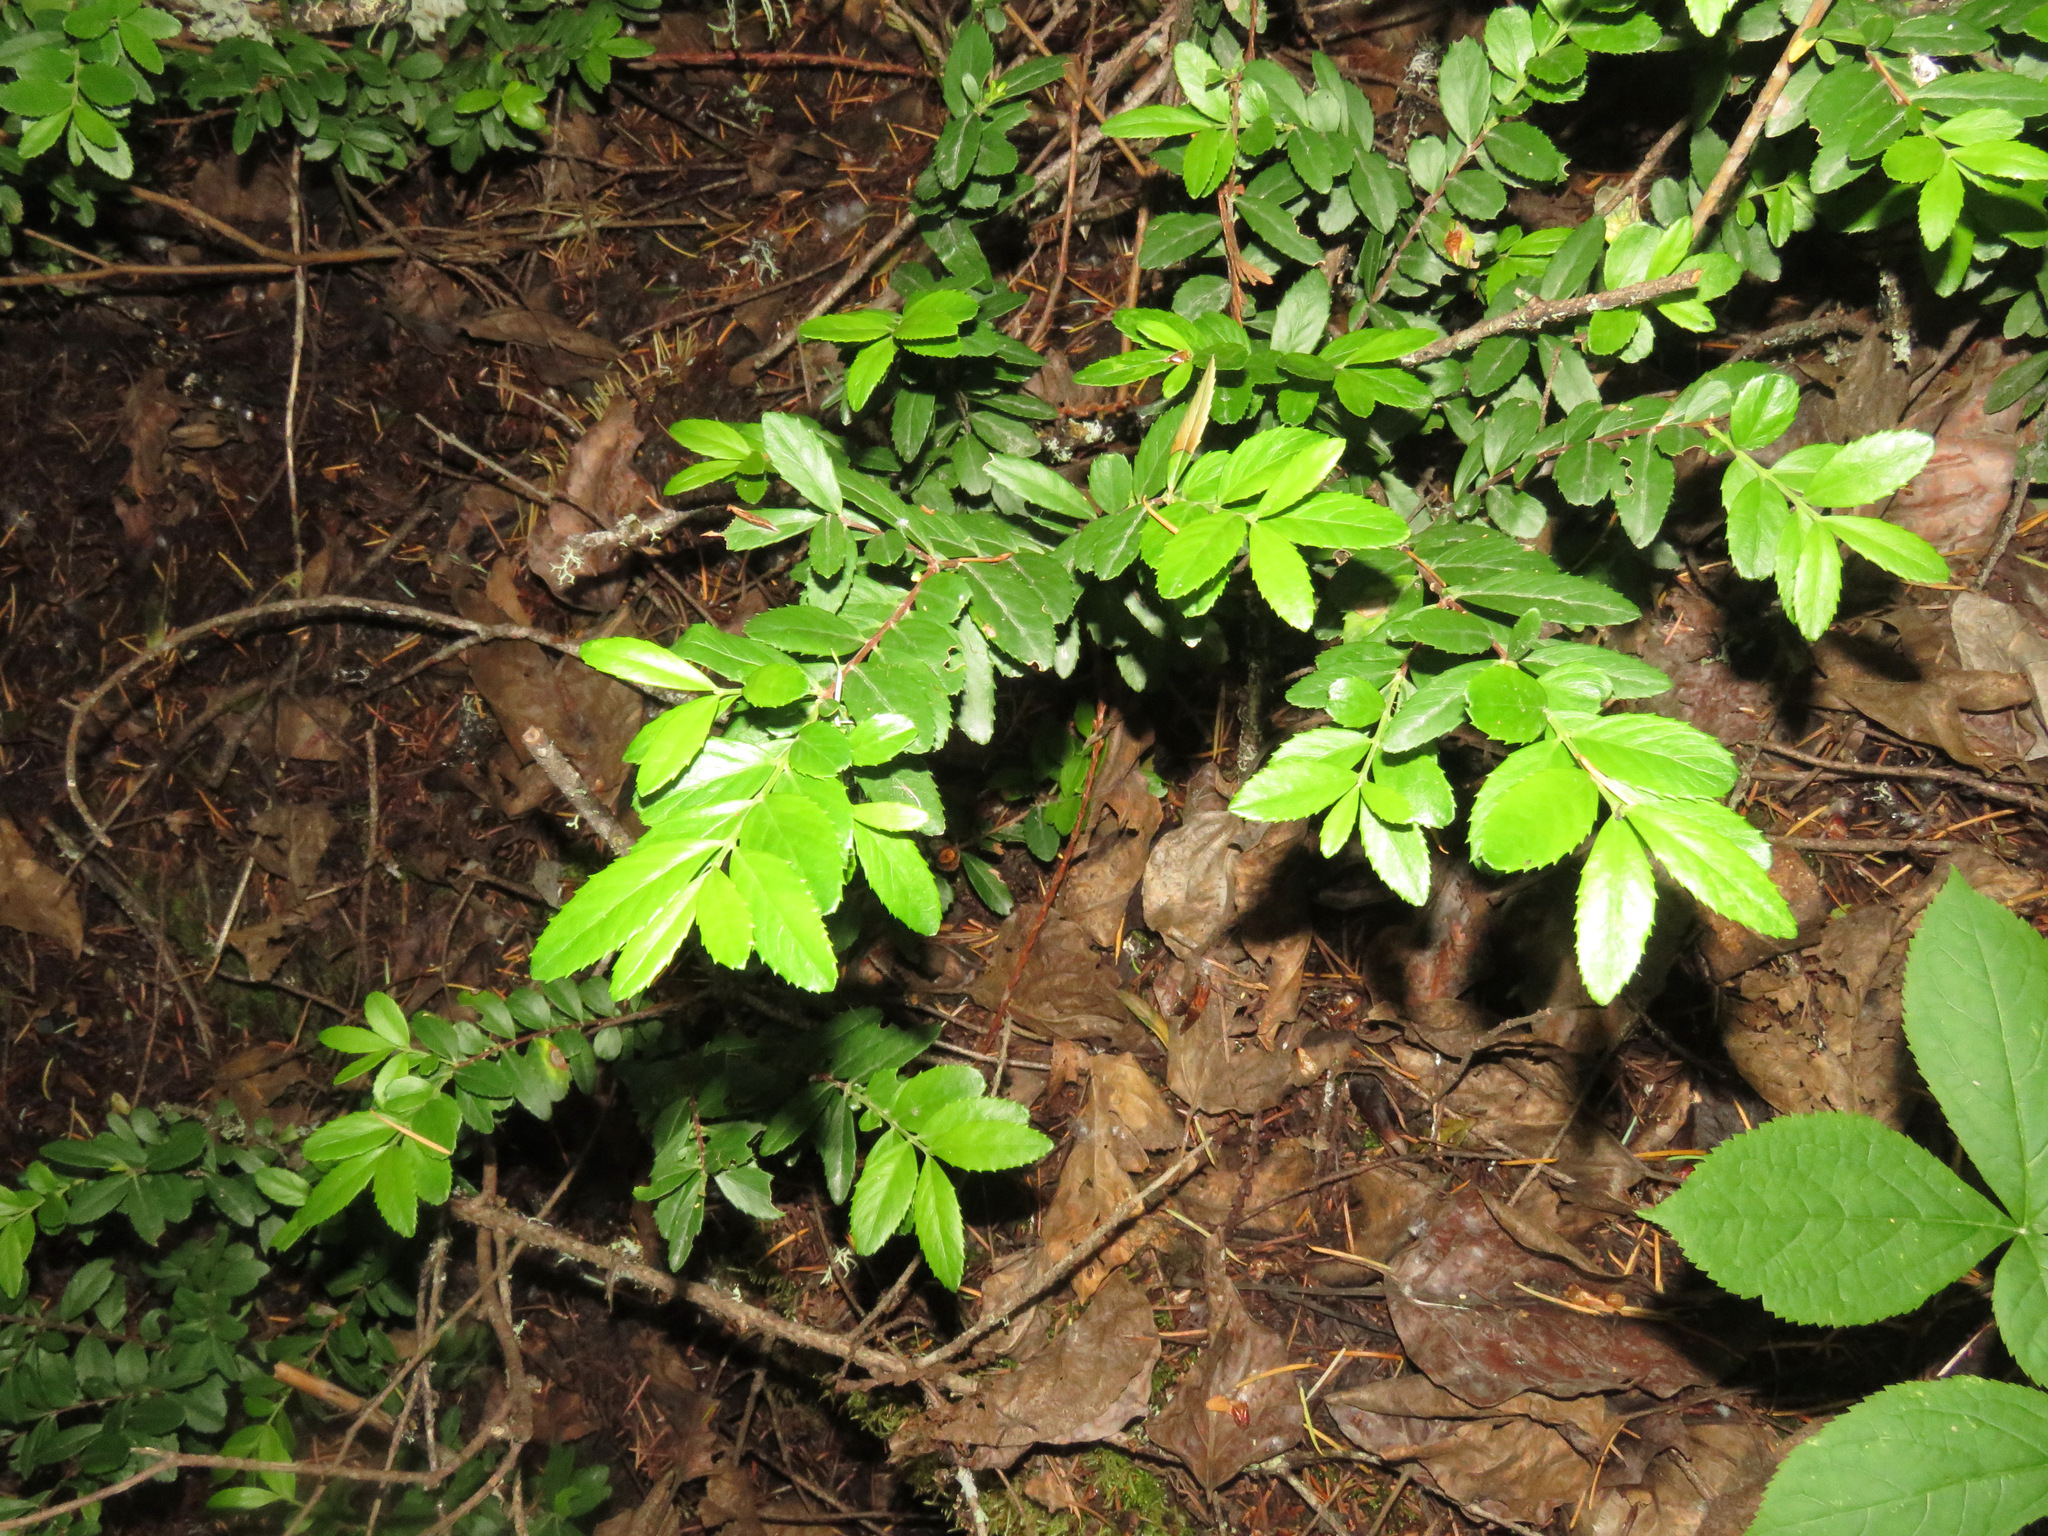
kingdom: Plantae
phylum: Tracheophyta
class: Magnoliopsida
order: Celastrales
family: Celastraceae
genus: Paxistima
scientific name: Paxistima myrsinites
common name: Mountain-lover
